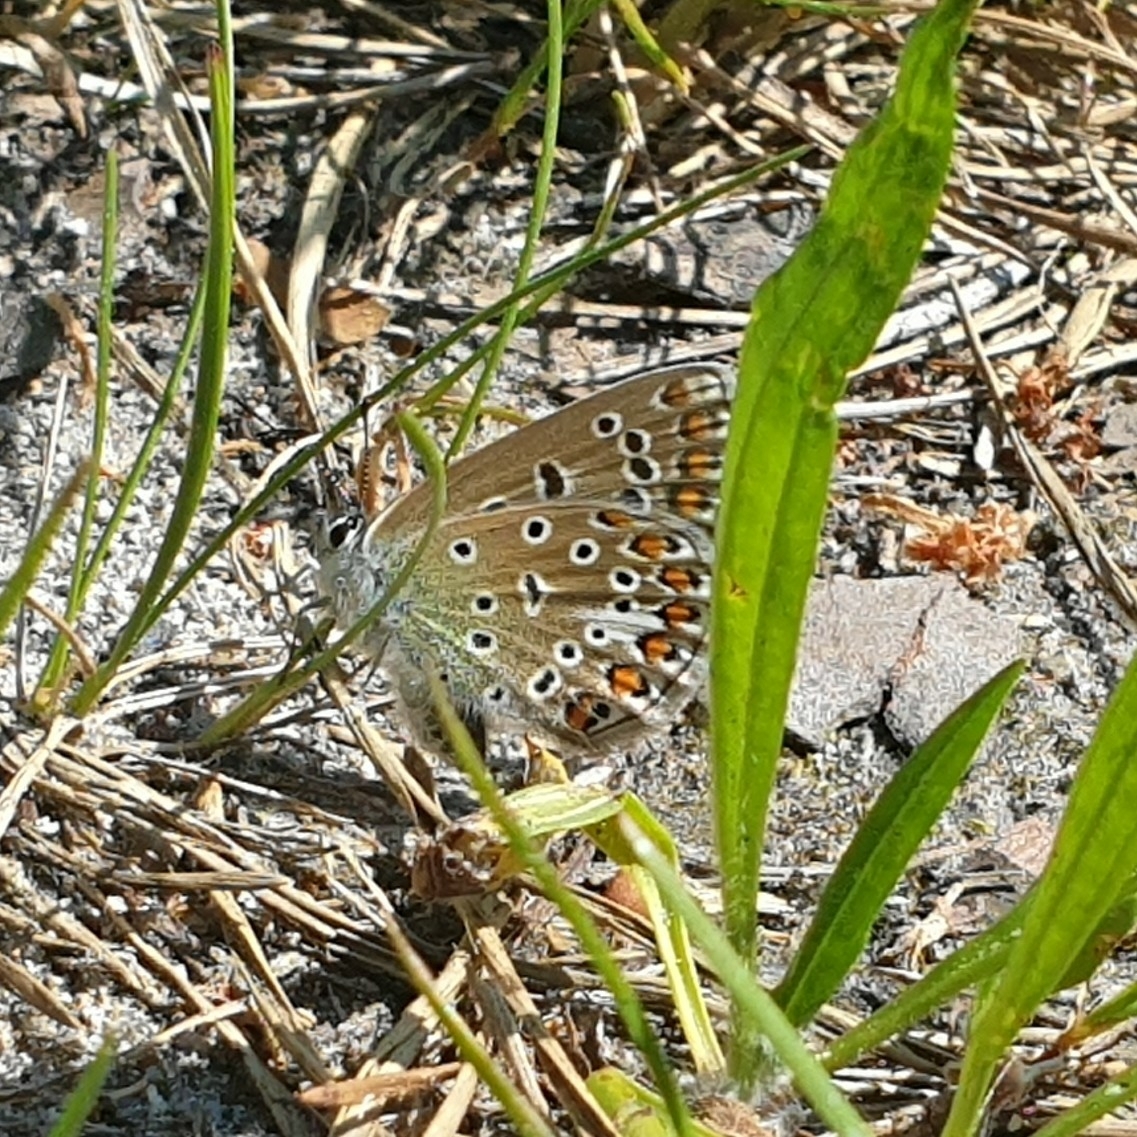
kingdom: Animalia
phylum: Arthropoda
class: Insecta
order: Lepidoptera
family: Lycaenidae
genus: Polyommatus
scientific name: Polyommatus icarus
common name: Common blue
